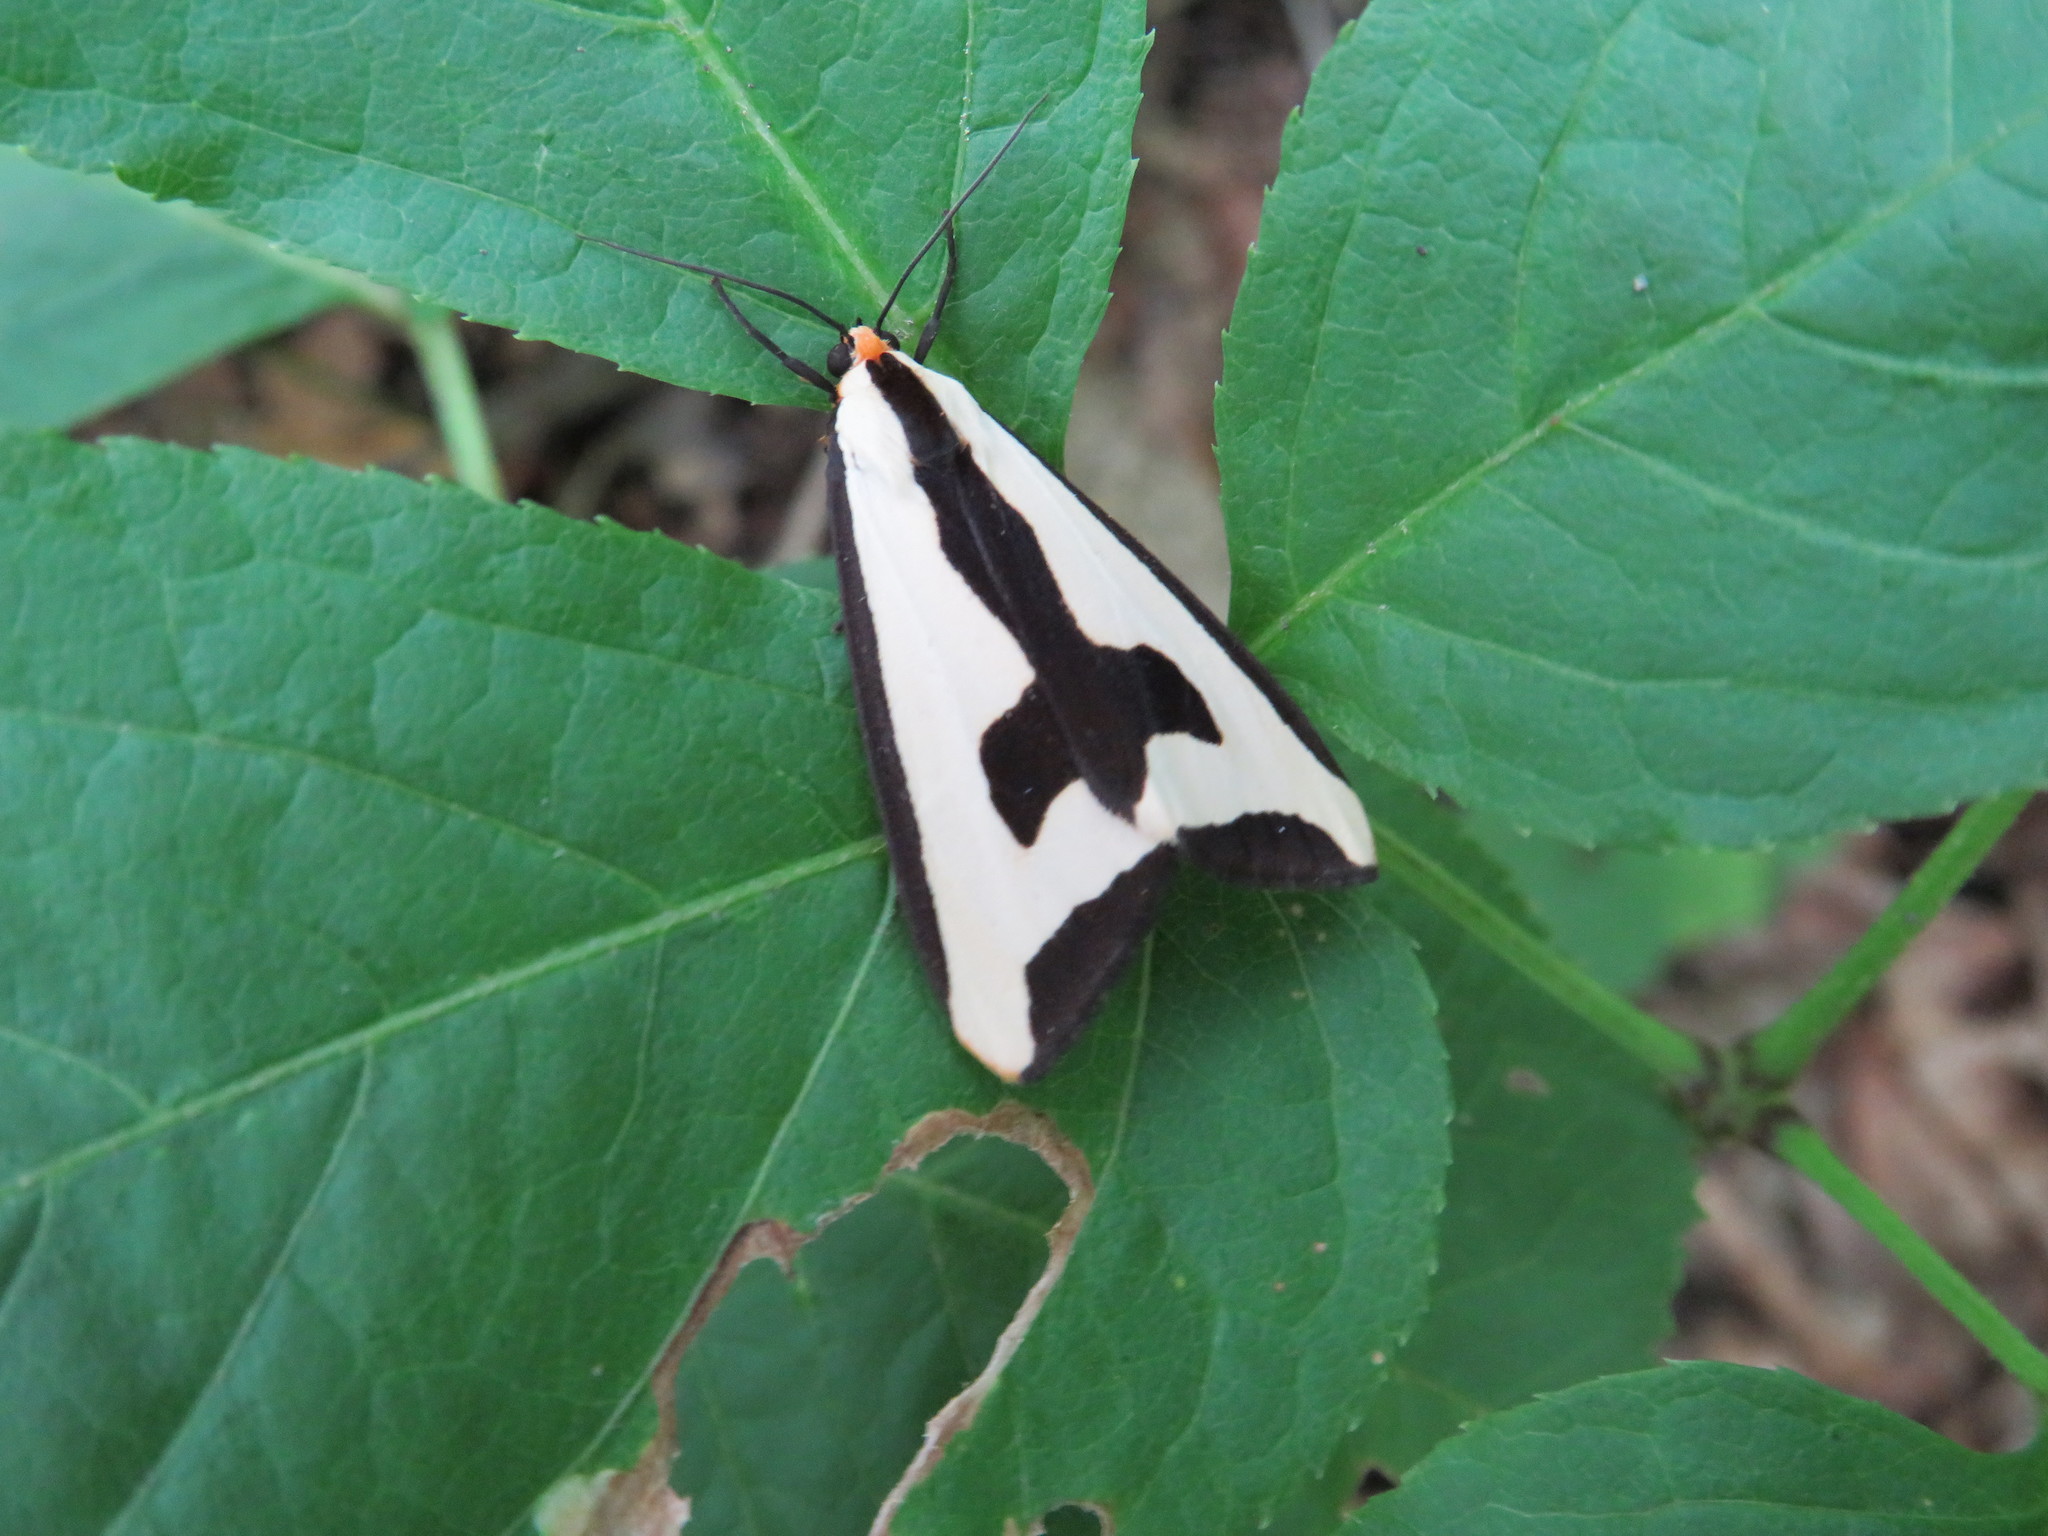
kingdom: Animalia
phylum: Arthropoda
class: Insecta
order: Lepidoptera
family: Erebidae
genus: Haploa
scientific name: Haploa clymene
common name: Clymene moth
